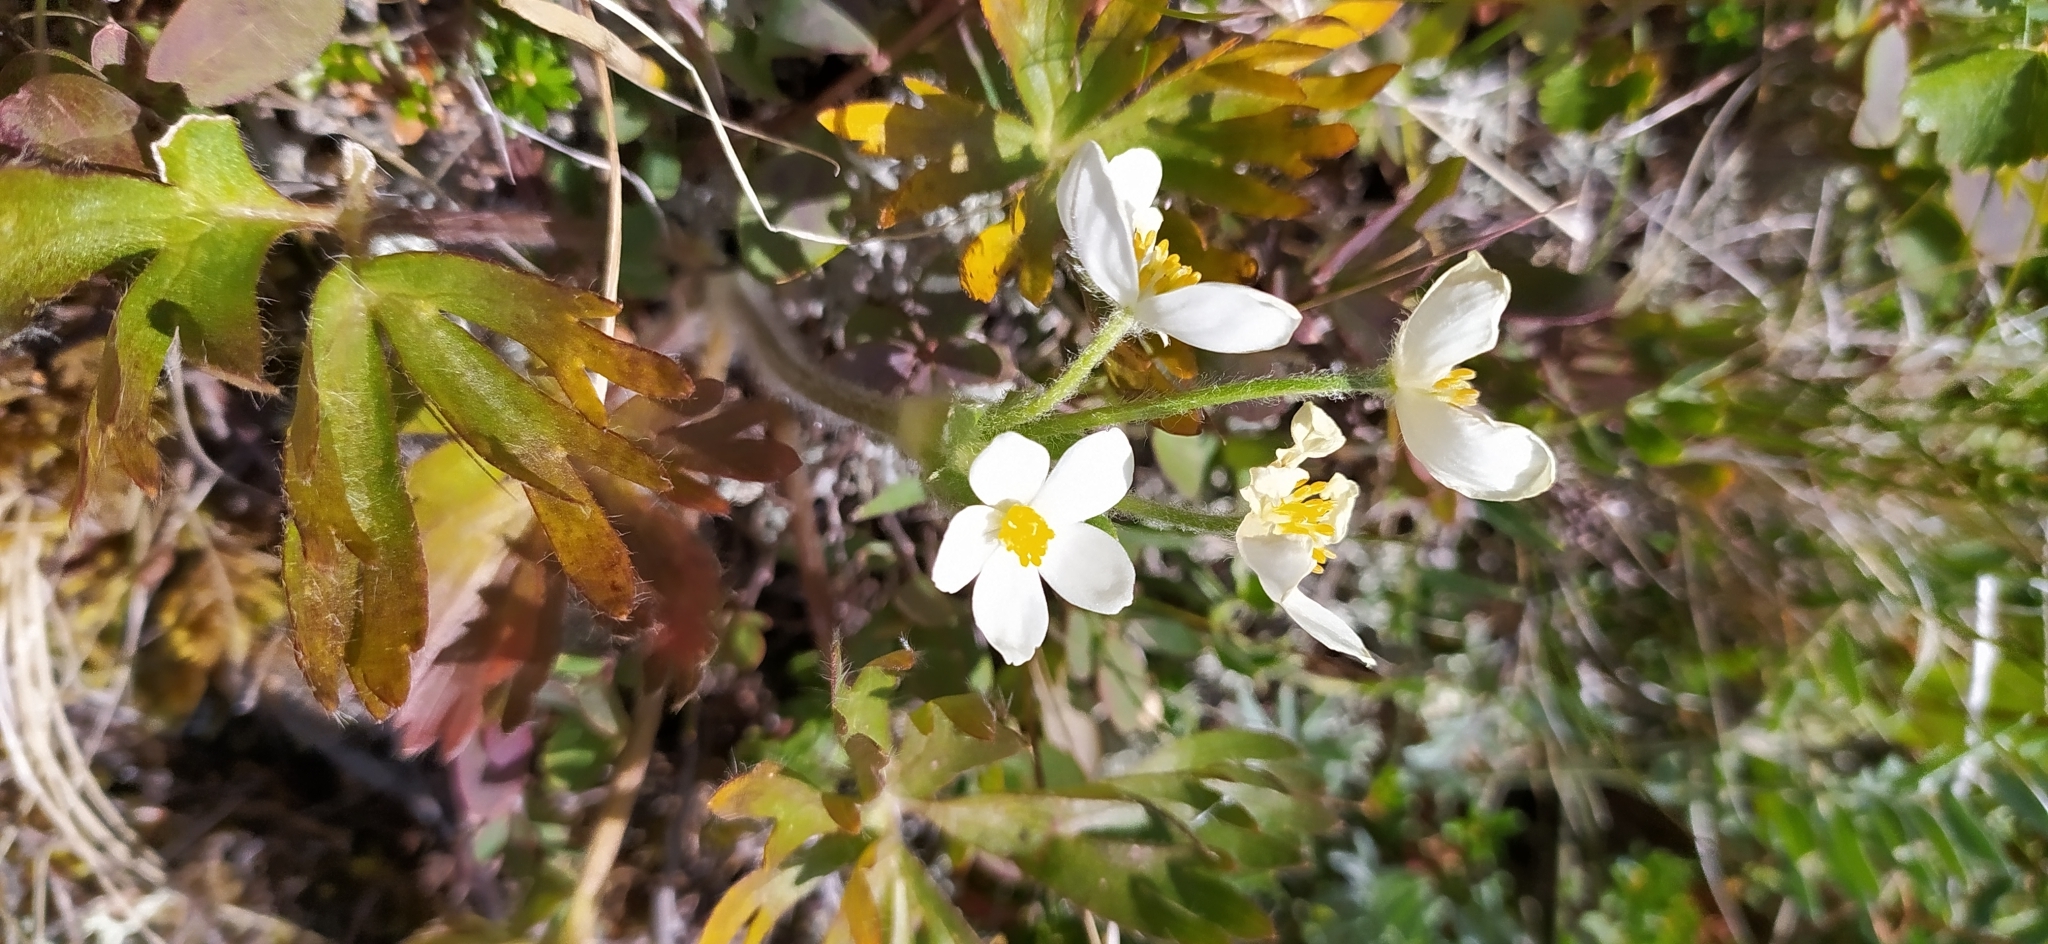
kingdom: Plantae
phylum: Tracheophyta
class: Magnoliopsida
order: Ranunculales
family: Ranunculaceae
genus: Anemonastrum
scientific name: Anemonastrum biarmiense
